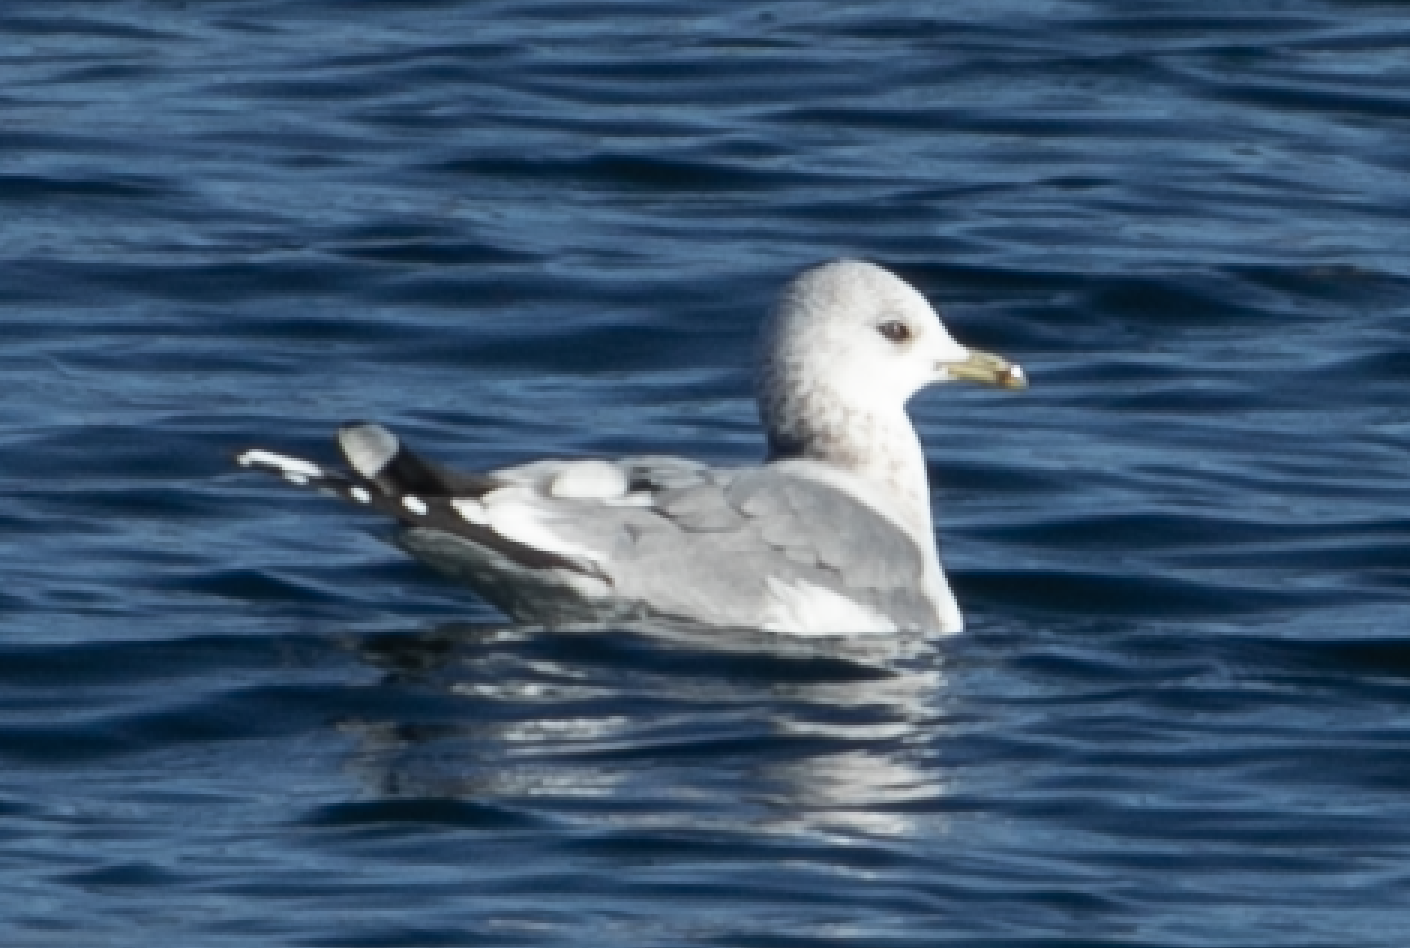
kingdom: Animalia
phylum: Chordata
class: Aves
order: Charadriiformes
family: Laridae
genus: Larus
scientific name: Larus canus
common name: Mew gull
